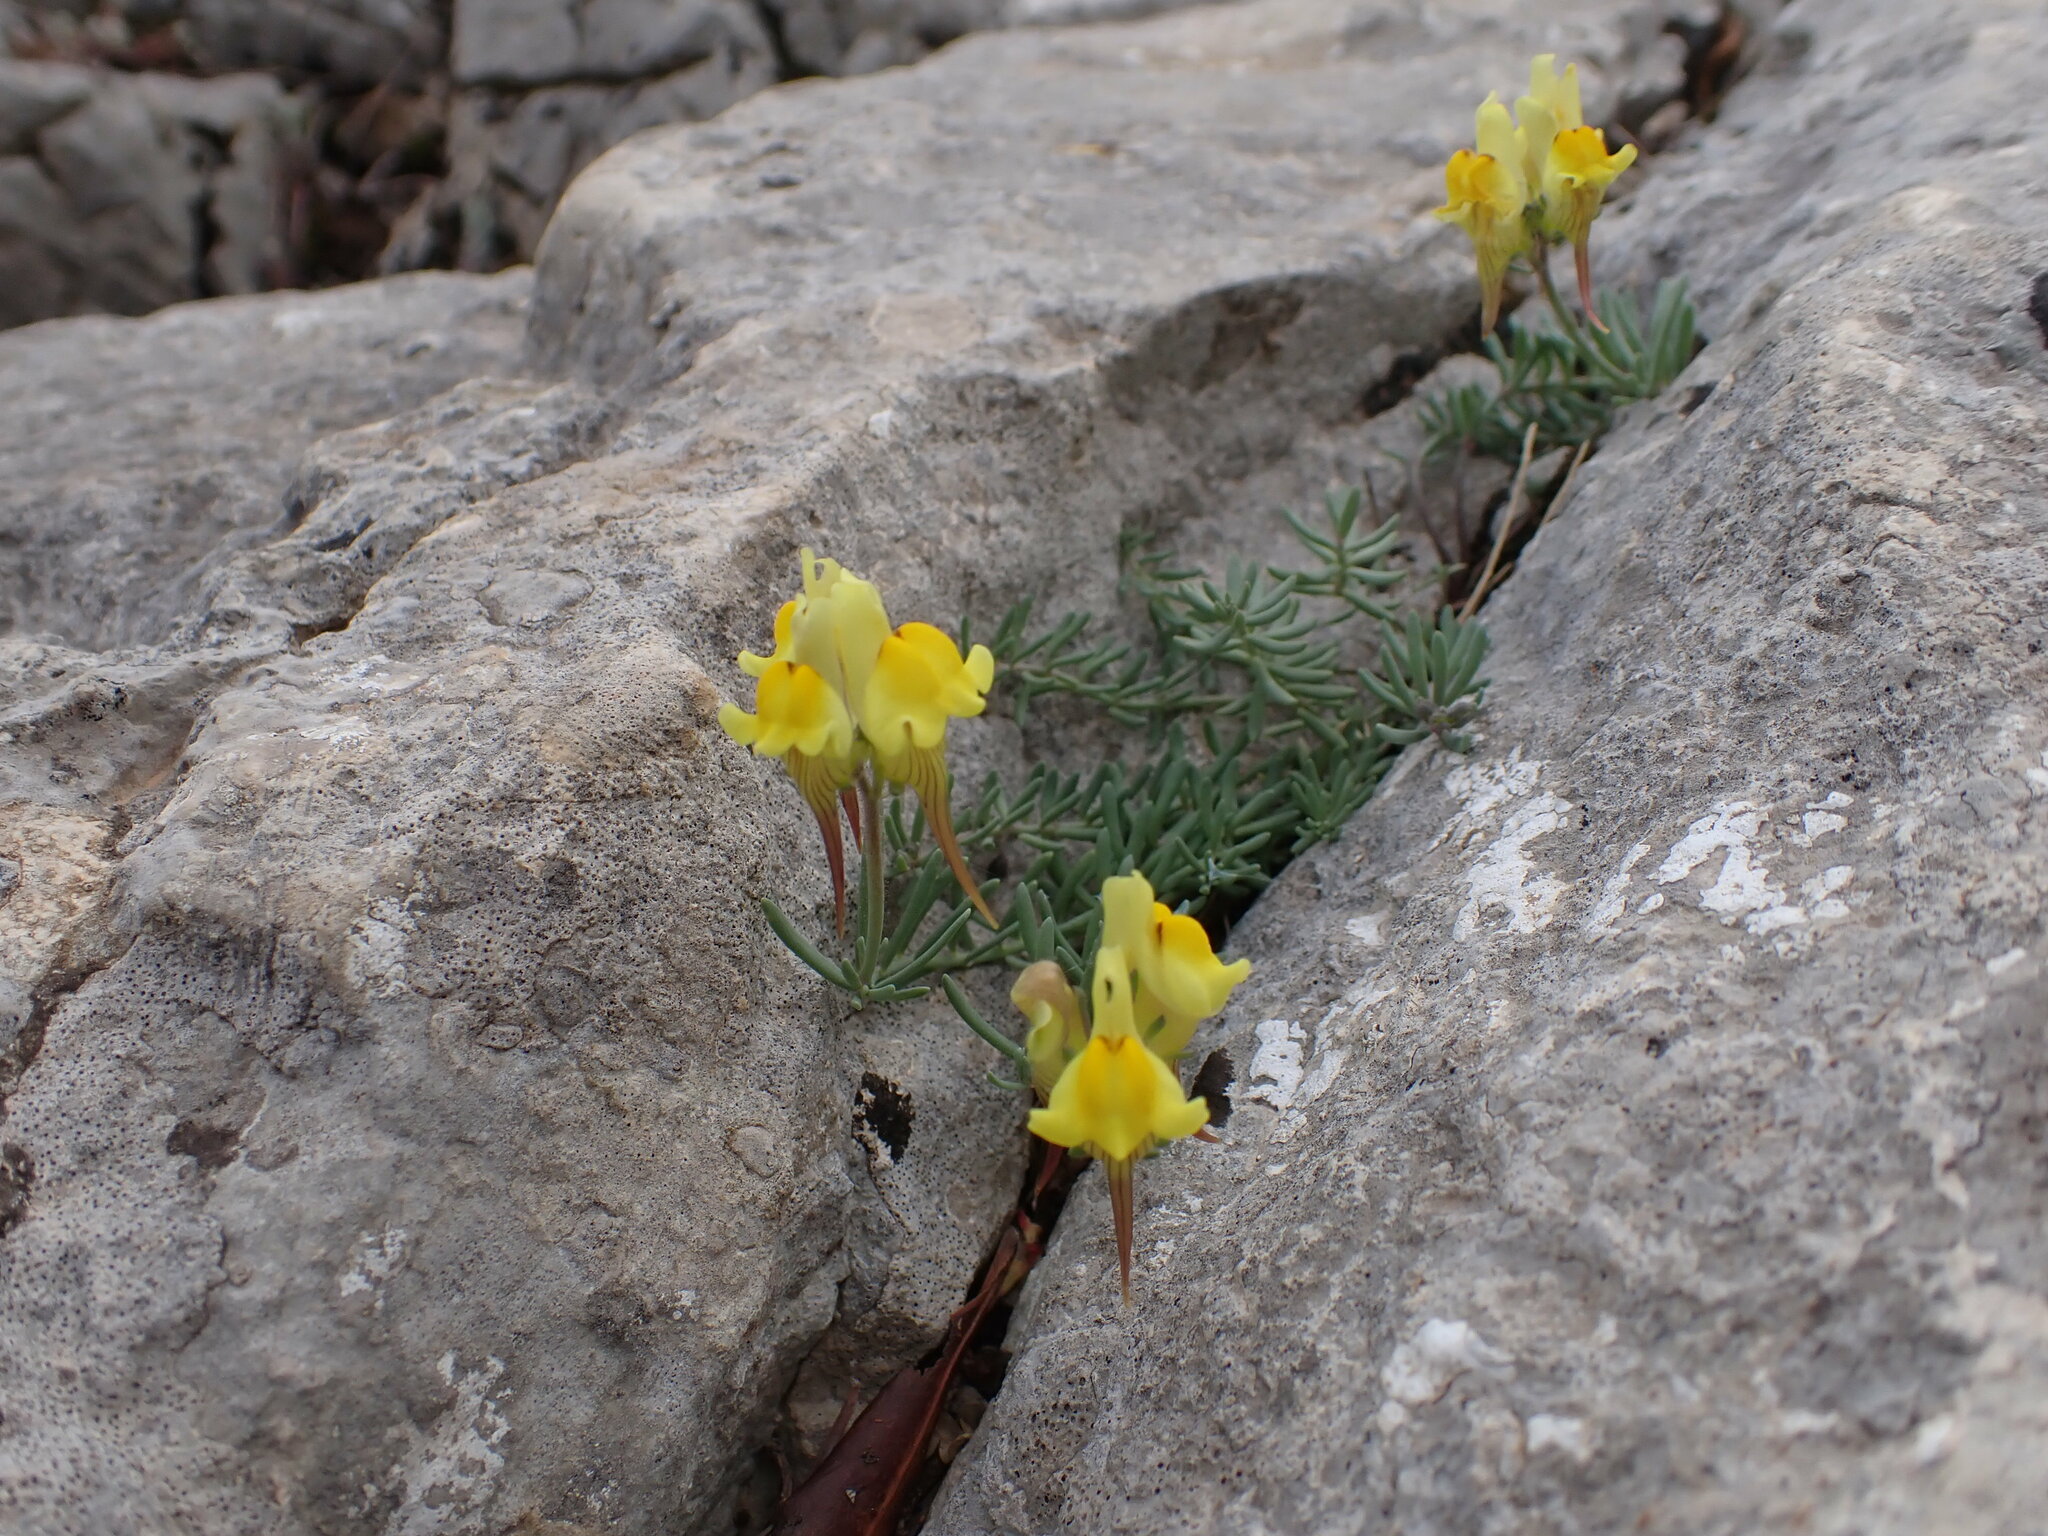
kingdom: Plantae
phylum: Tracheophyta
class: Magnoliopsida
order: Lamiales
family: Plantaginaceae
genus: Linaria
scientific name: Linaria supina
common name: Prostrate toadflax
